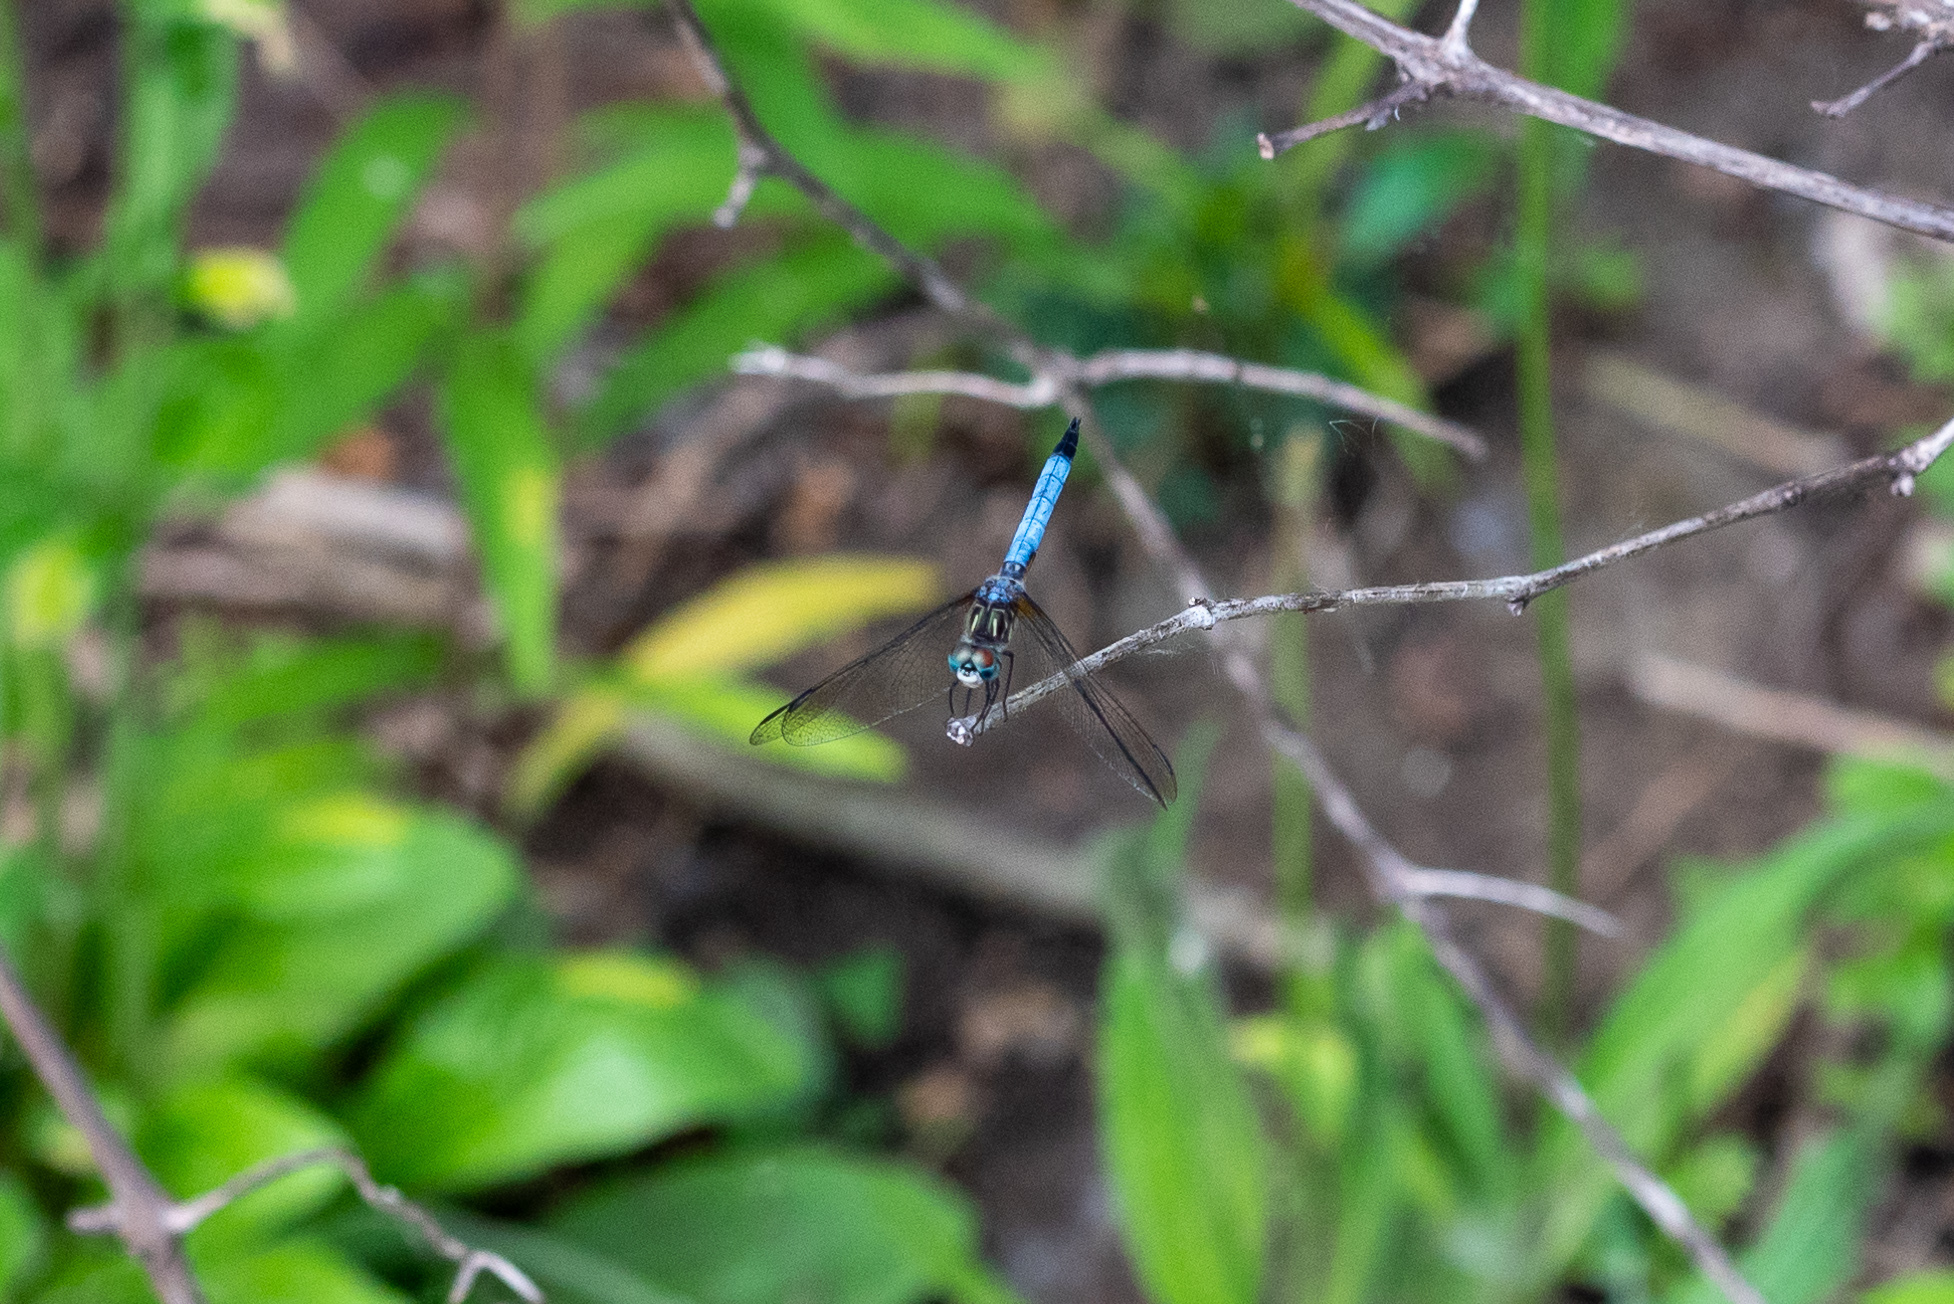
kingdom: Animalia
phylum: Arthropoda
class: Insecta
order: Odonata
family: Libellulidae
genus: Pachydiplax
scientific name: Pachydiplax longipennis
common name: Blue dasher
